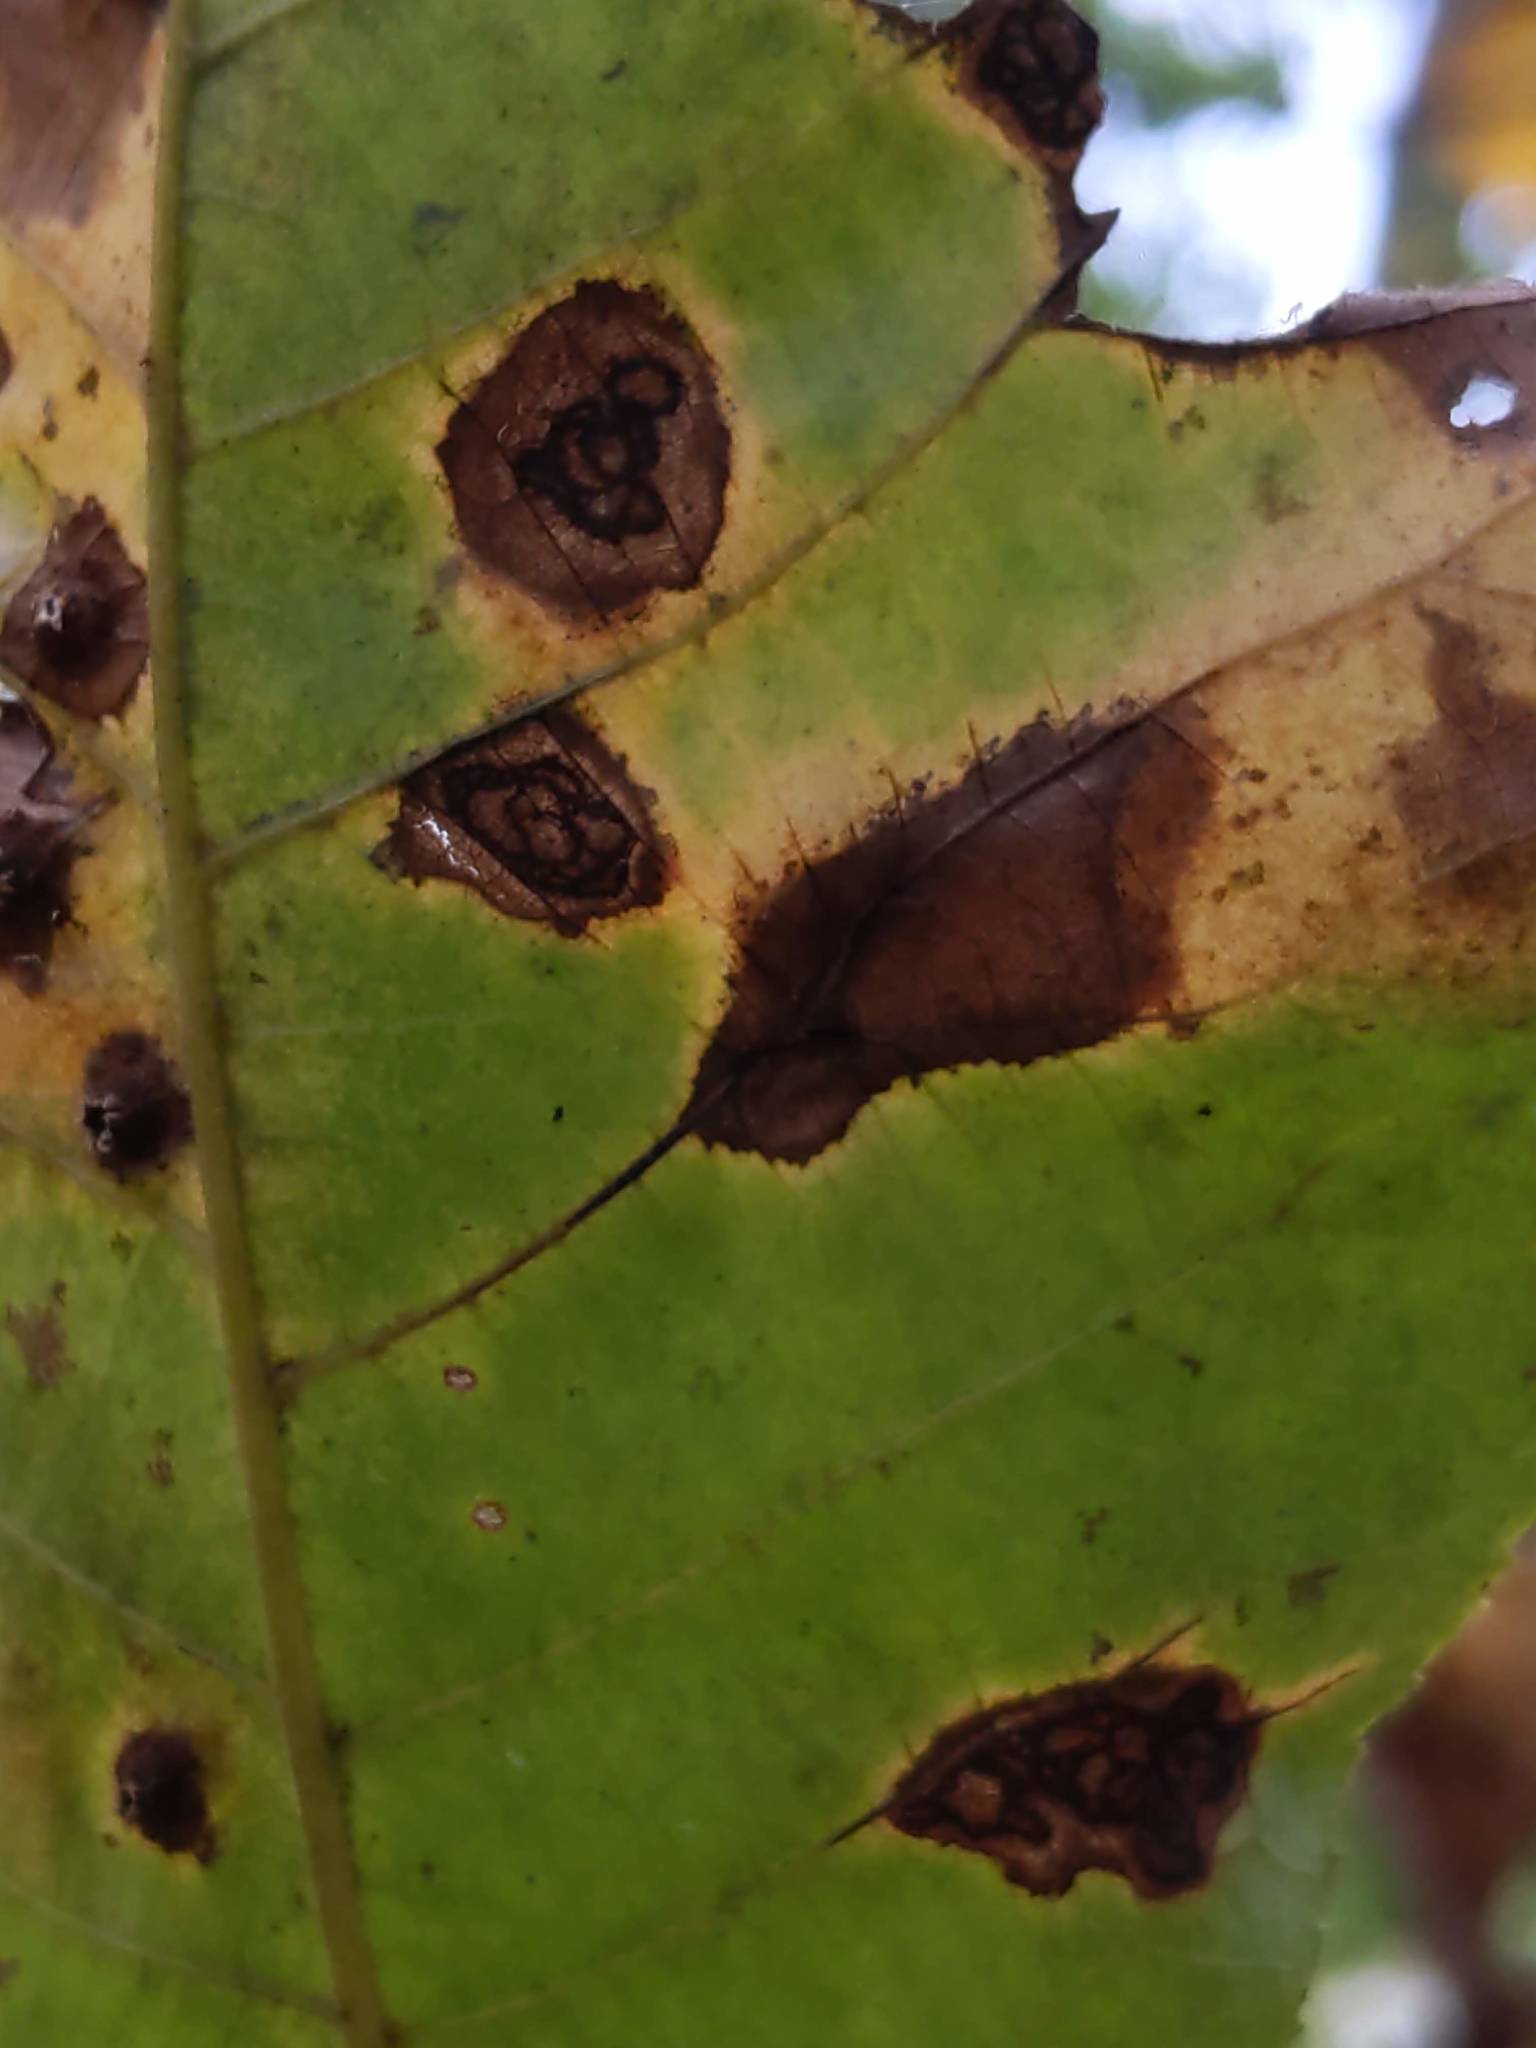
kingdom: Animalia
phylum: Arthropoda
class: Insecta
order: Diptera
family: Cecidomyiidae
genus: Gliaspilota
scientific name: Gliaspilota glutinosa
